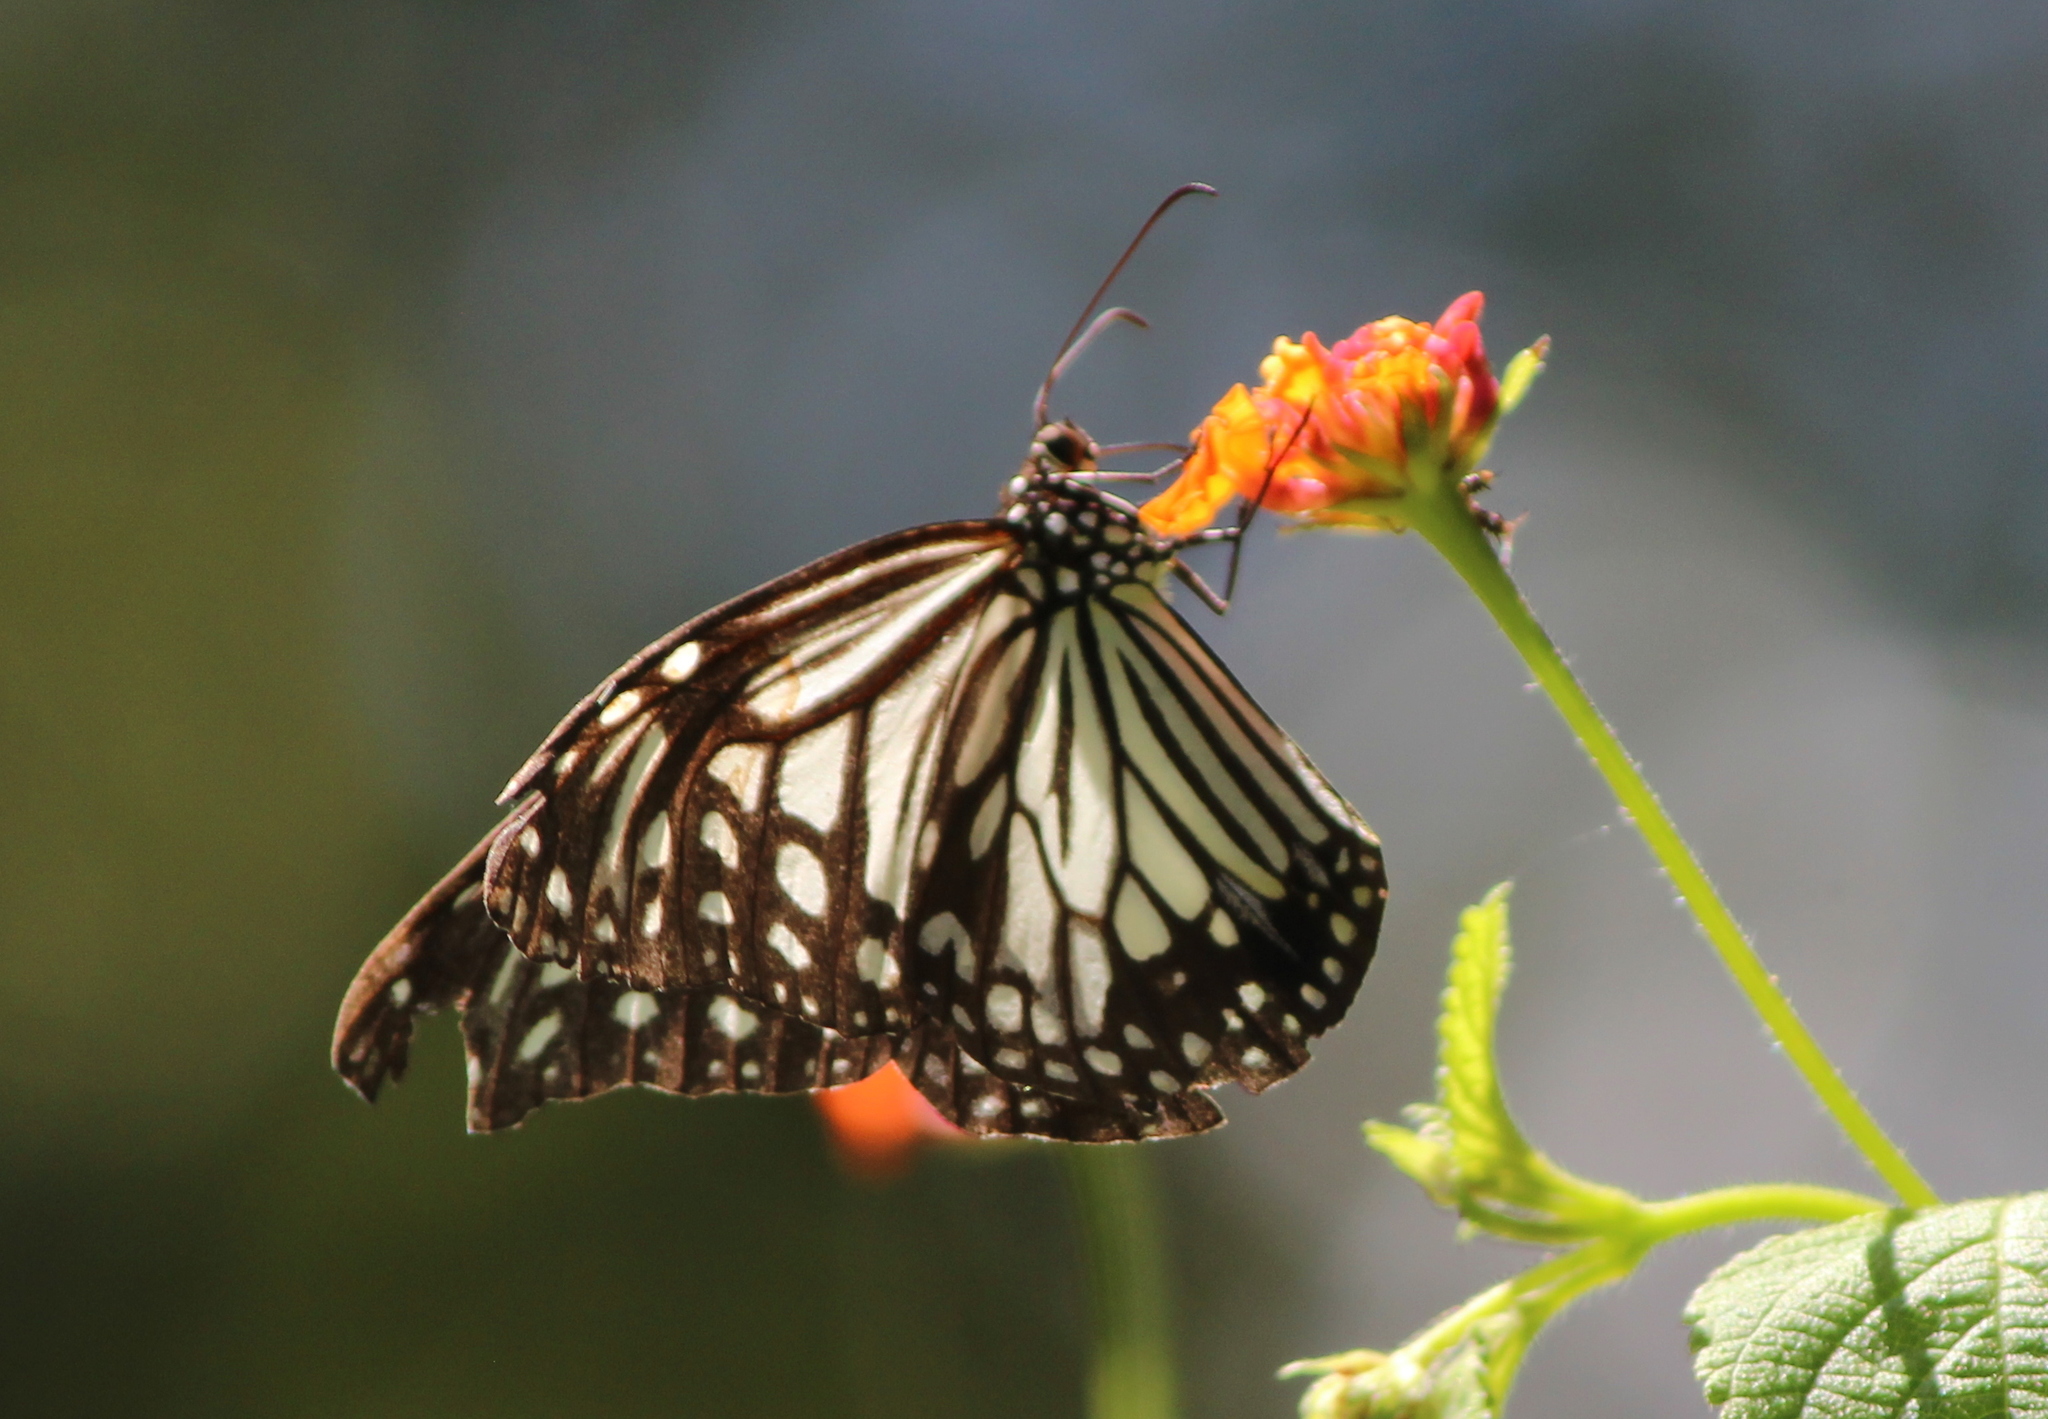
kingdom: Animalia
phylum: Arthropoda
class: Insecta
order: Lepidoptera
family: Nymphalidae
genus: Parantica
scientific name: Parantica aglea
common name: Glassy tiger
